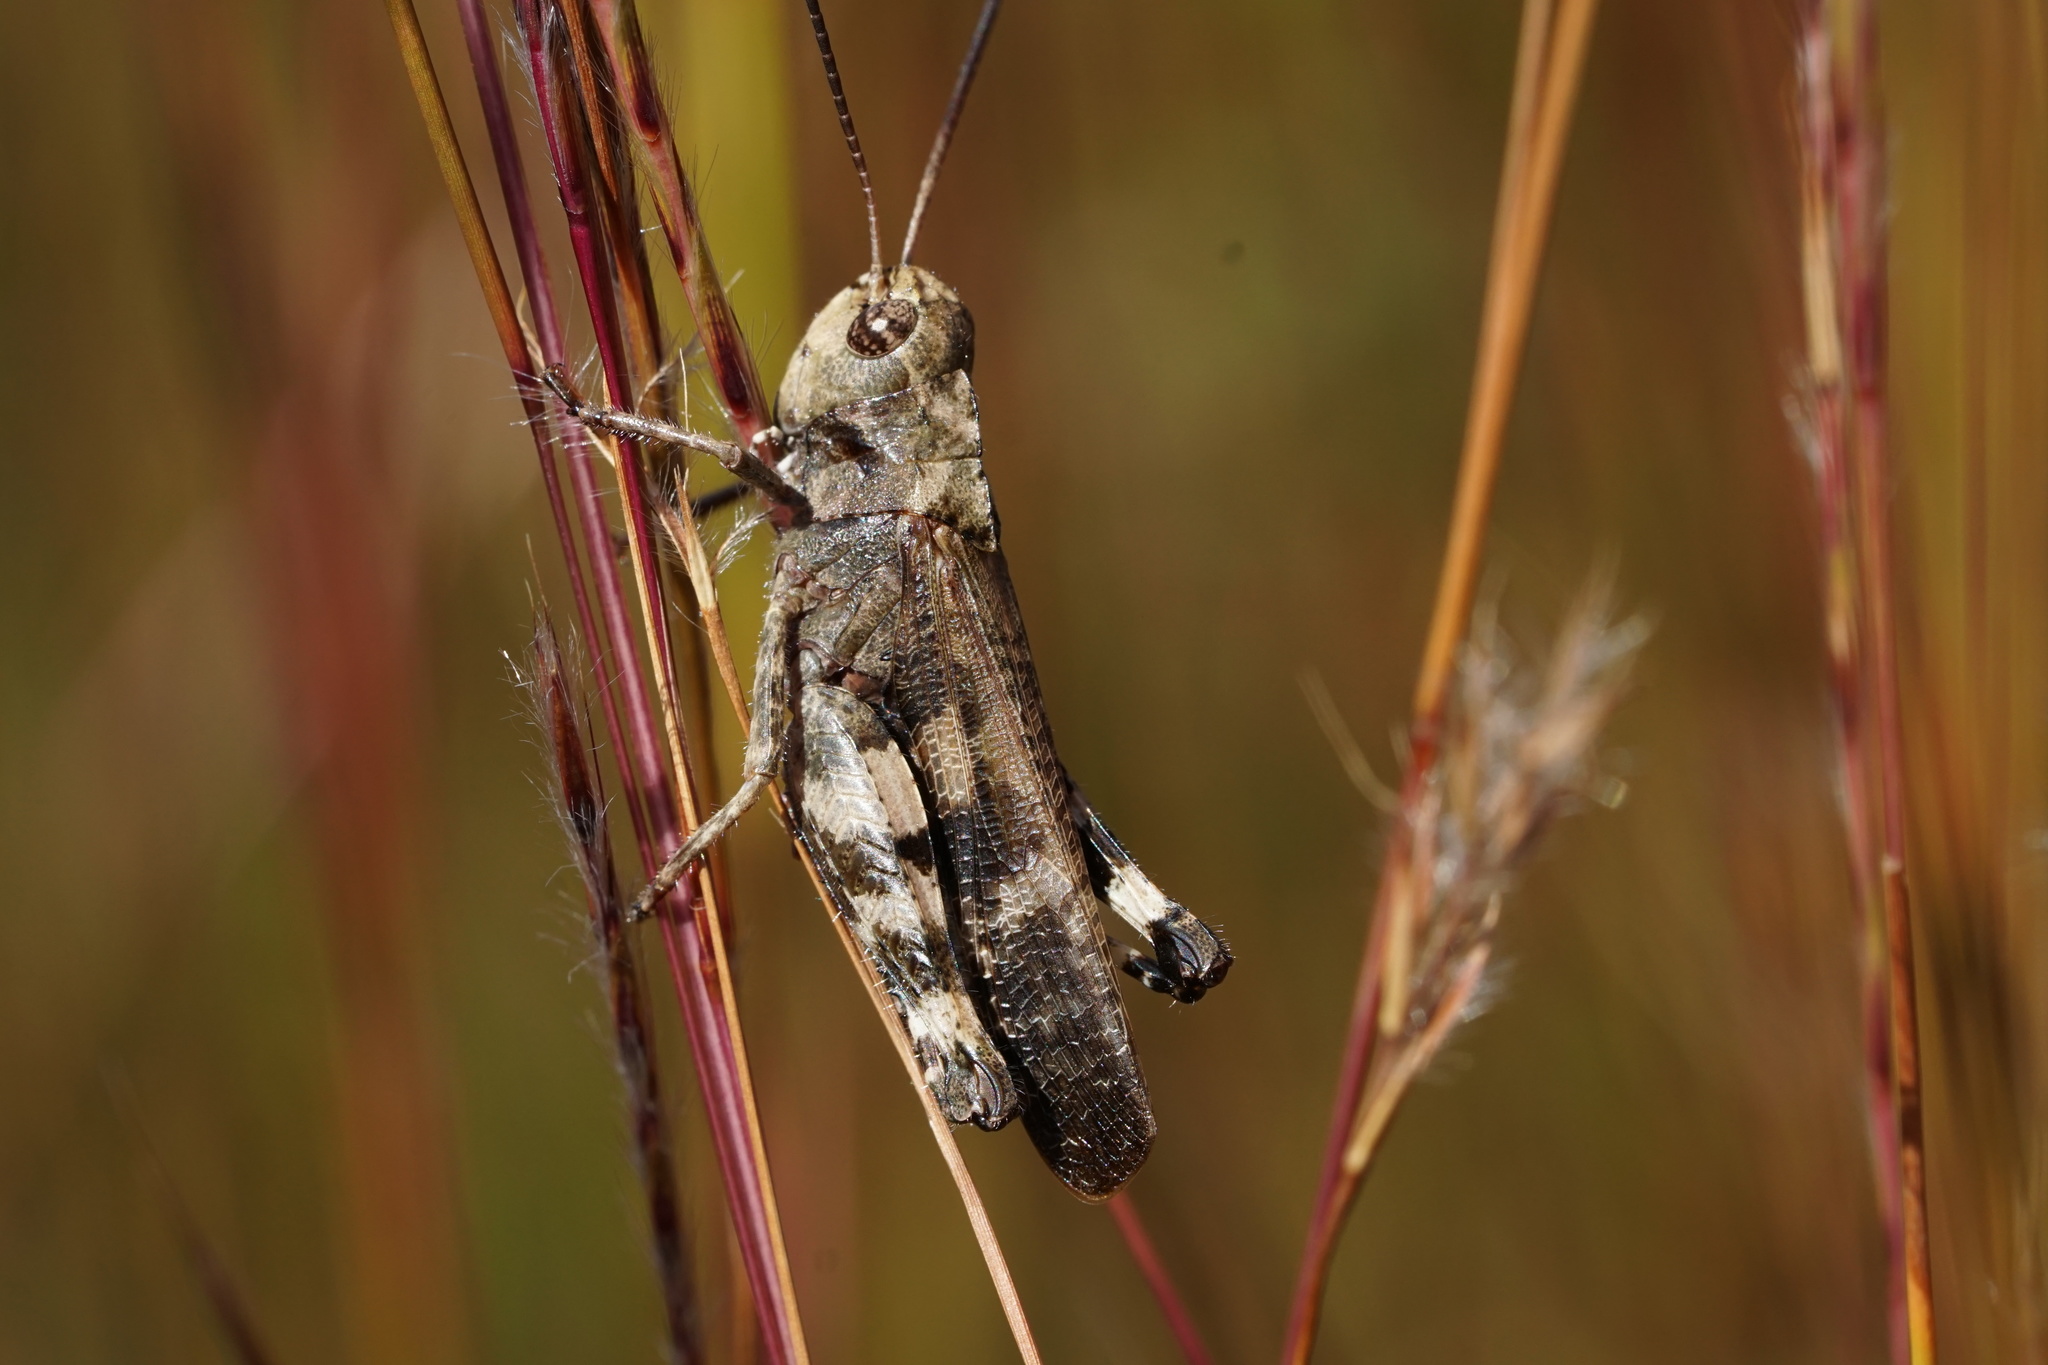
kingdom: Animalia
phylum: Arthropoda
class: Insecta
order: Orthoptera
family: Acrididae
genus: Encoptolophus
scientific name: Encoptolophus sordidus
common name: Dusky grasshopper
